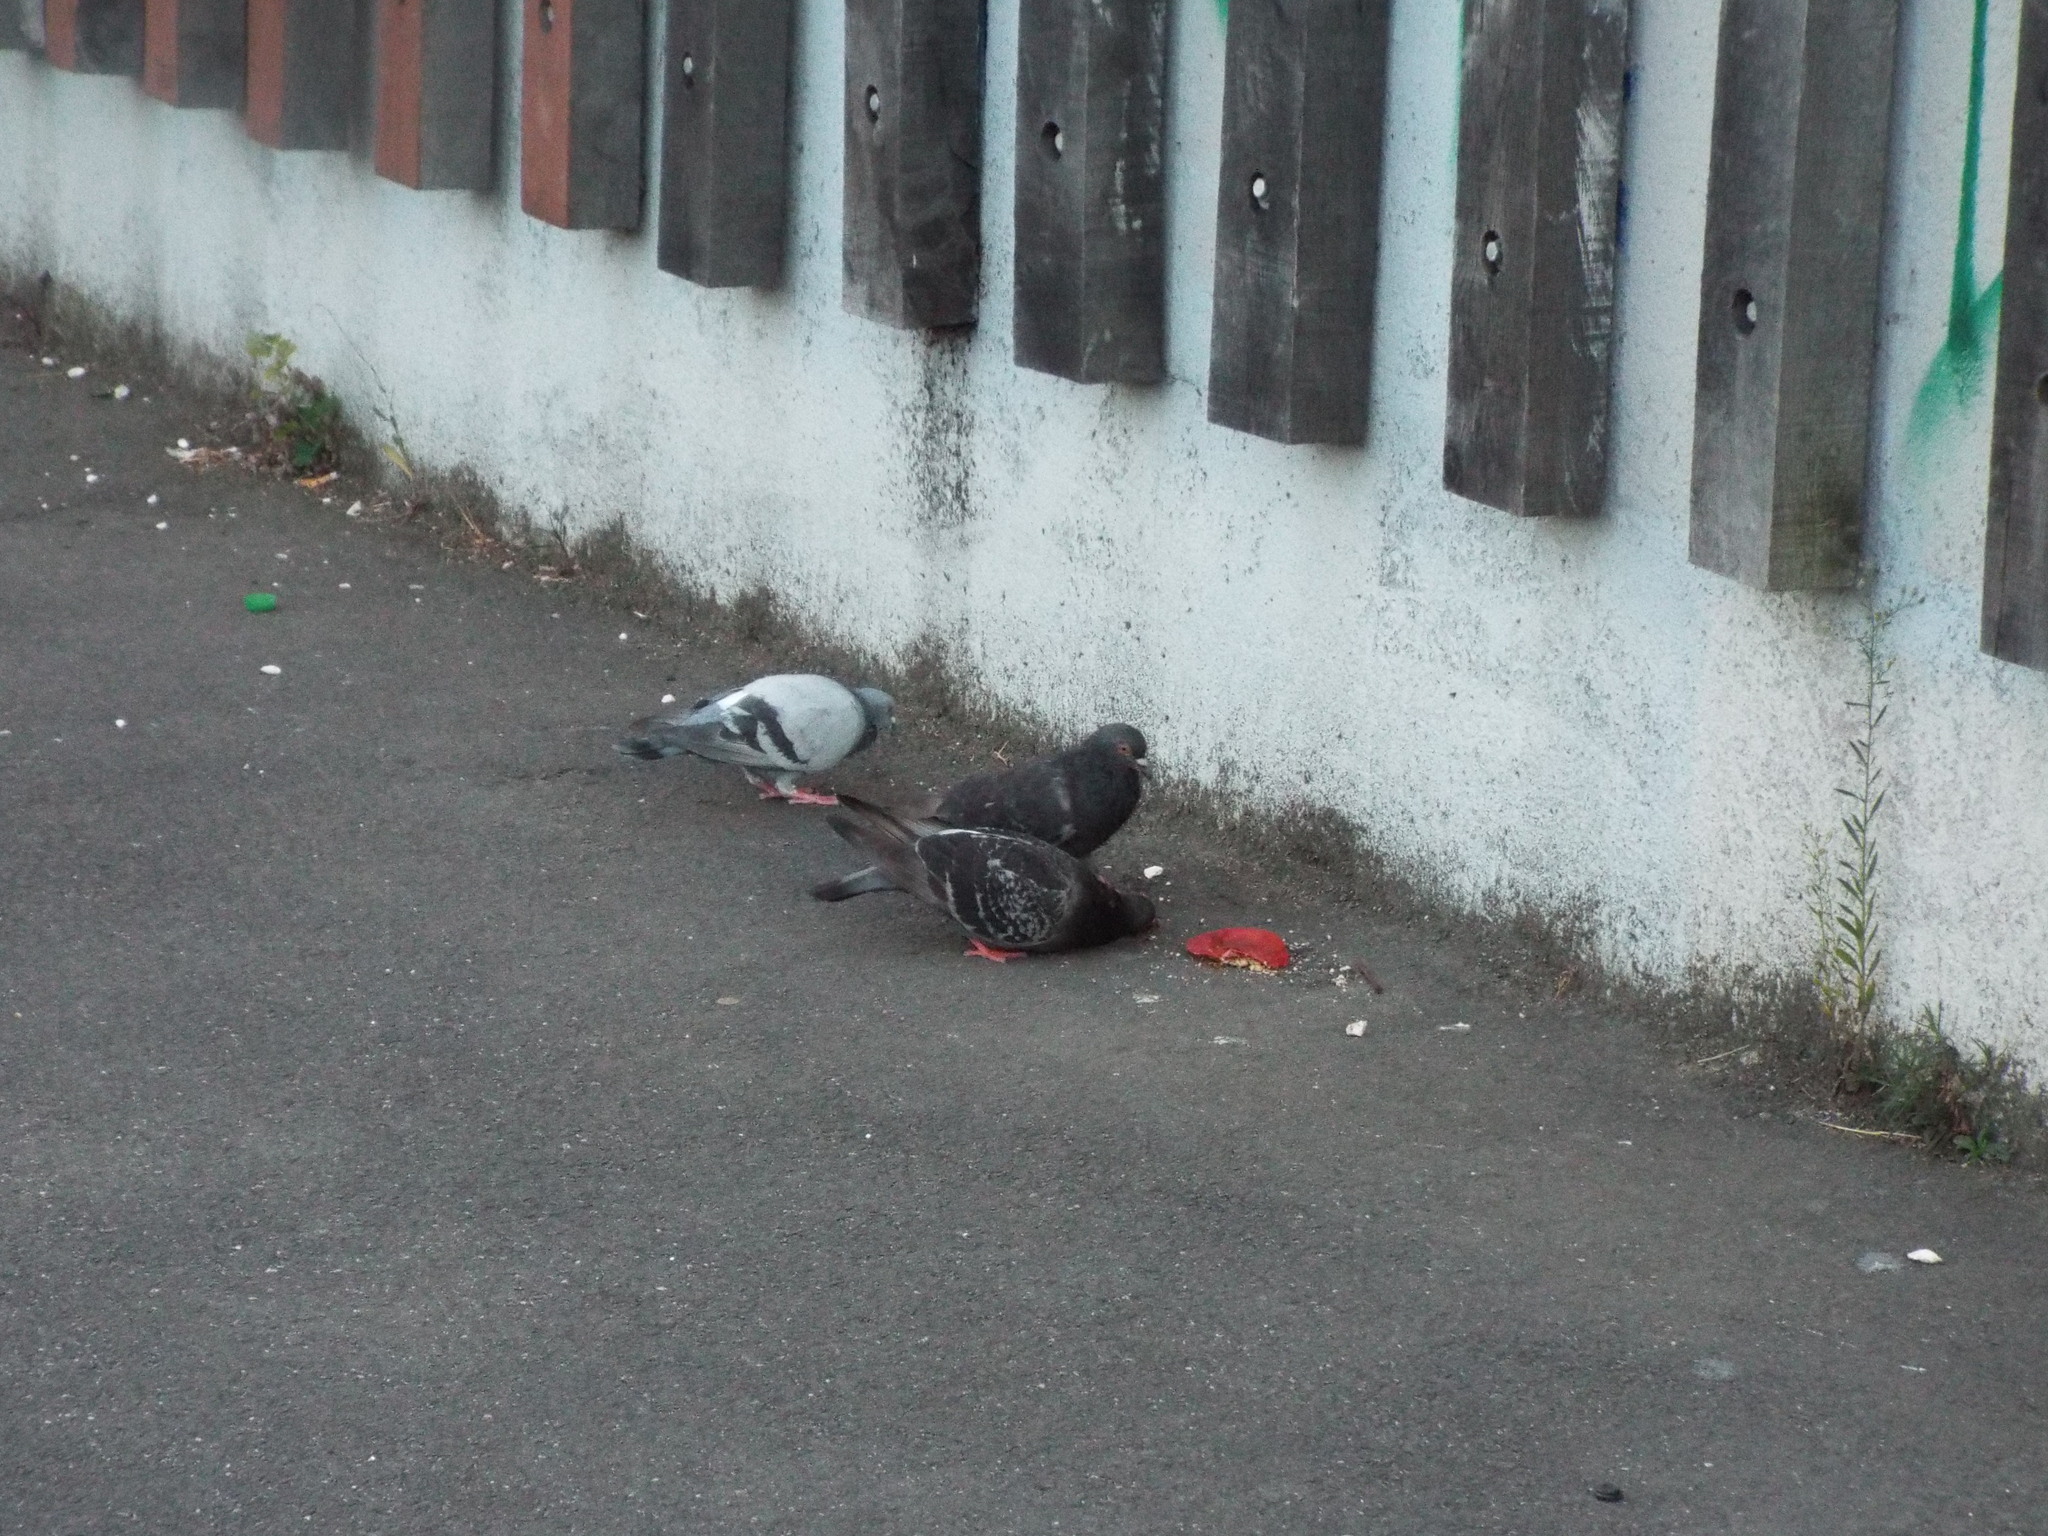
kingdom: Animalia
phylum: Chordata
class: Aves
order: Columbiformes
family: Columbidae
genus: Columba
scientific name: Columba livia
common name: Rock pigeon
